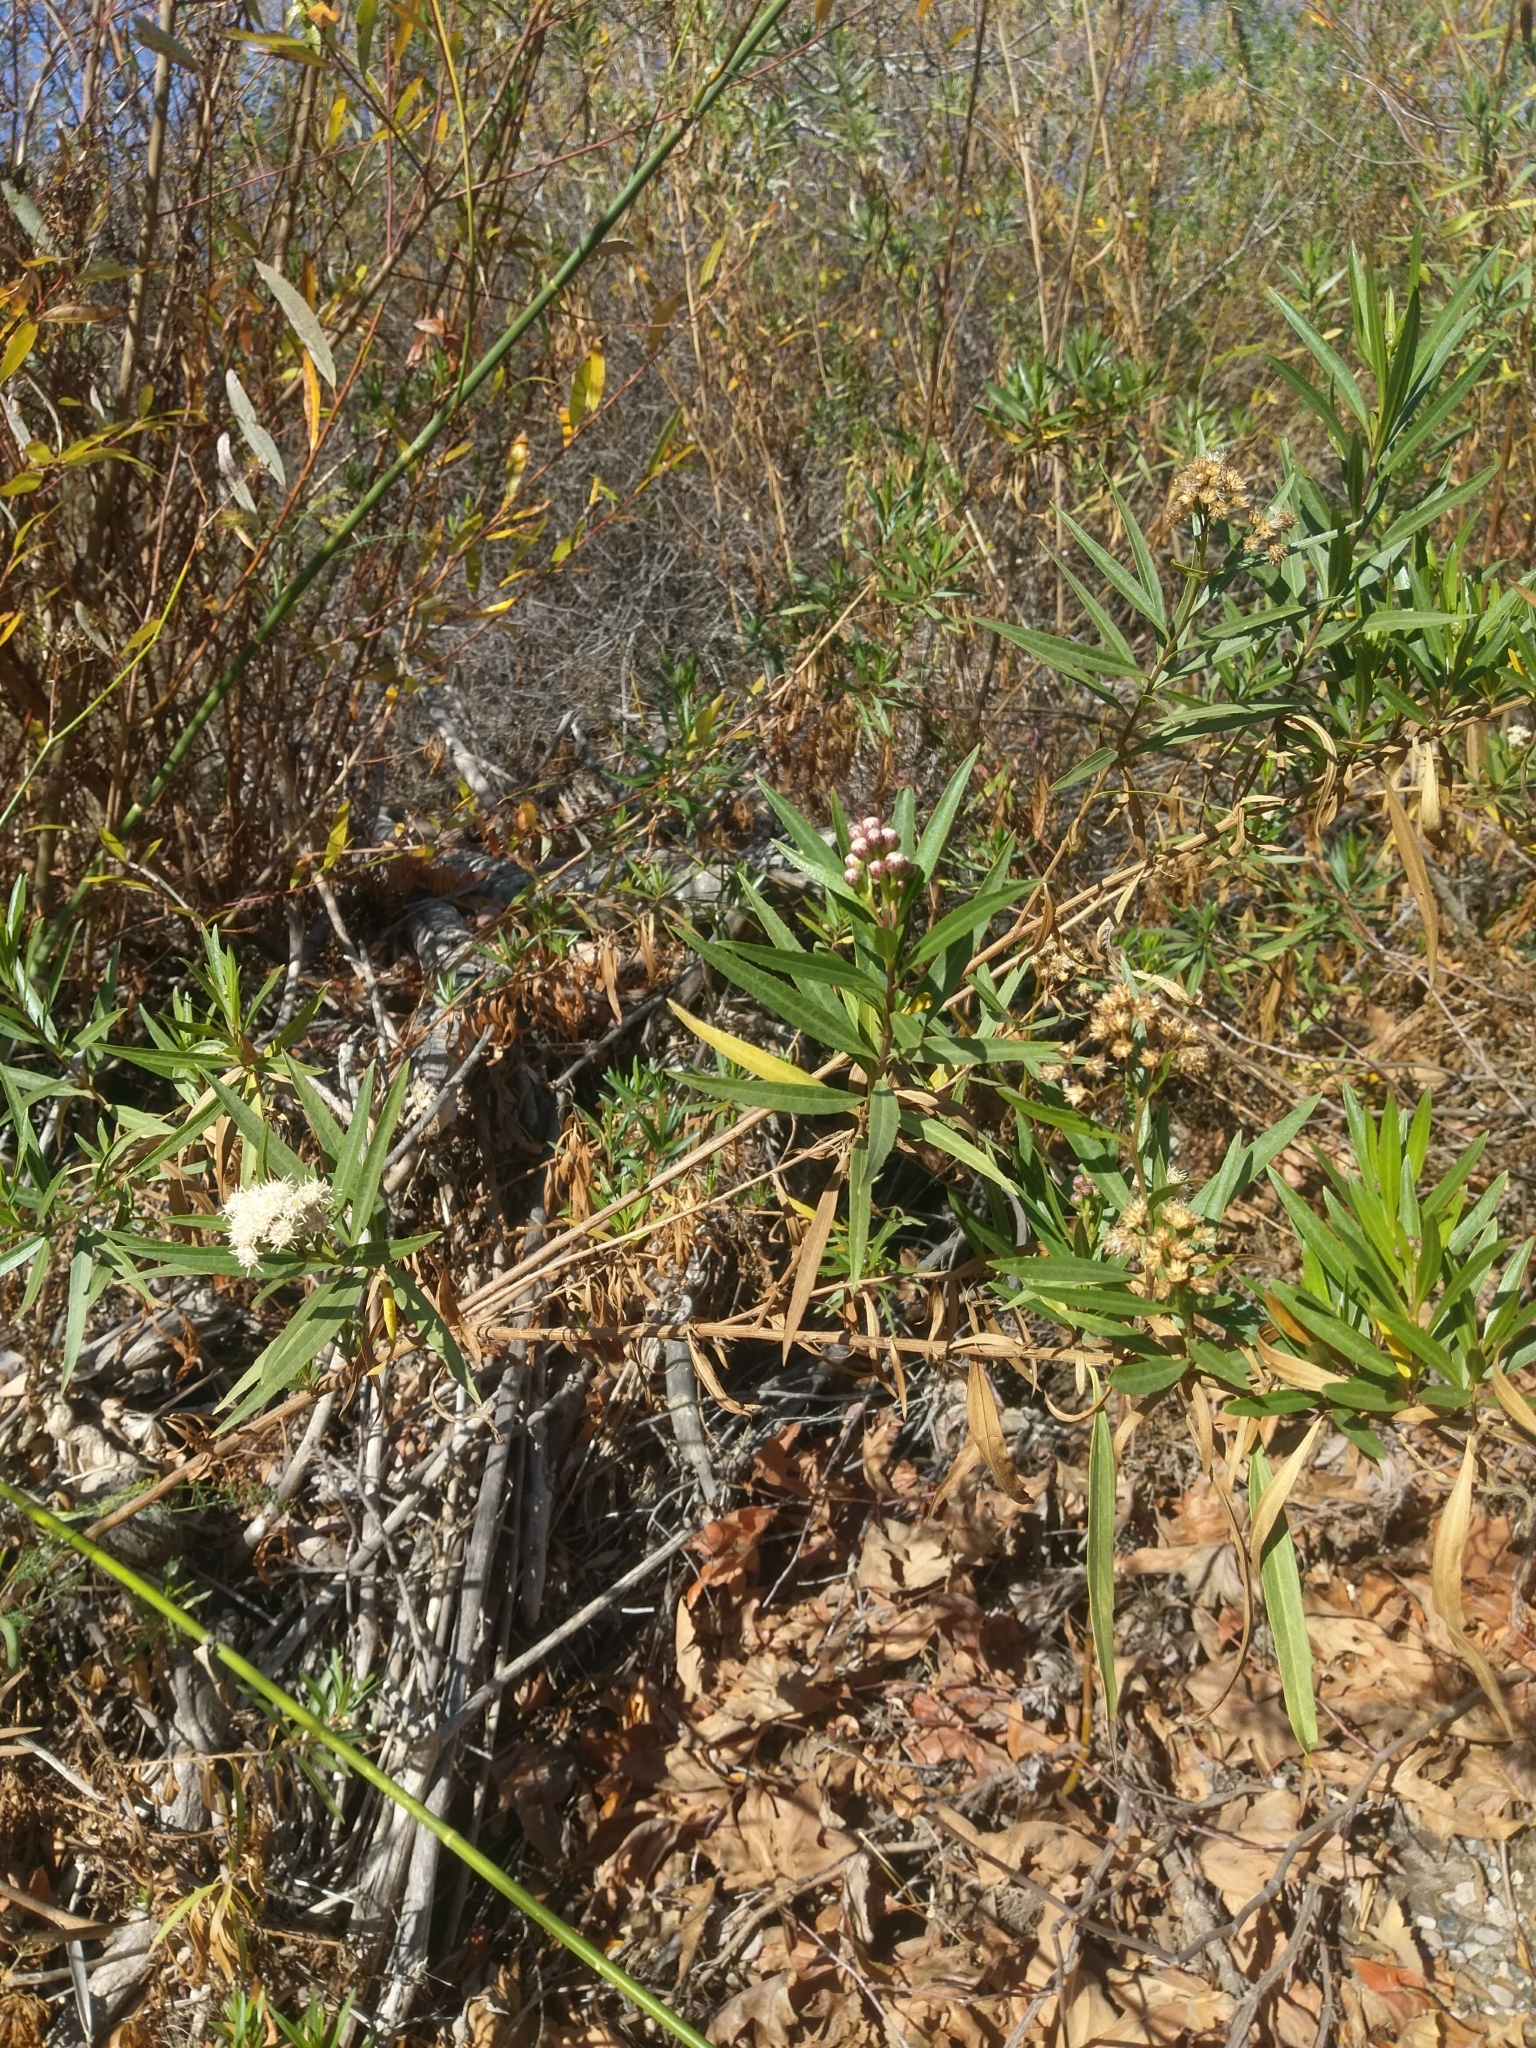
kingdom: Plantae
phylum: Tracheophyta
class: Magnoliopsida
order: Asterales
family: Asteraceae
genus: Baccharis
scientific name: Baccharis salicifolia
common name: Sticky baccharis
